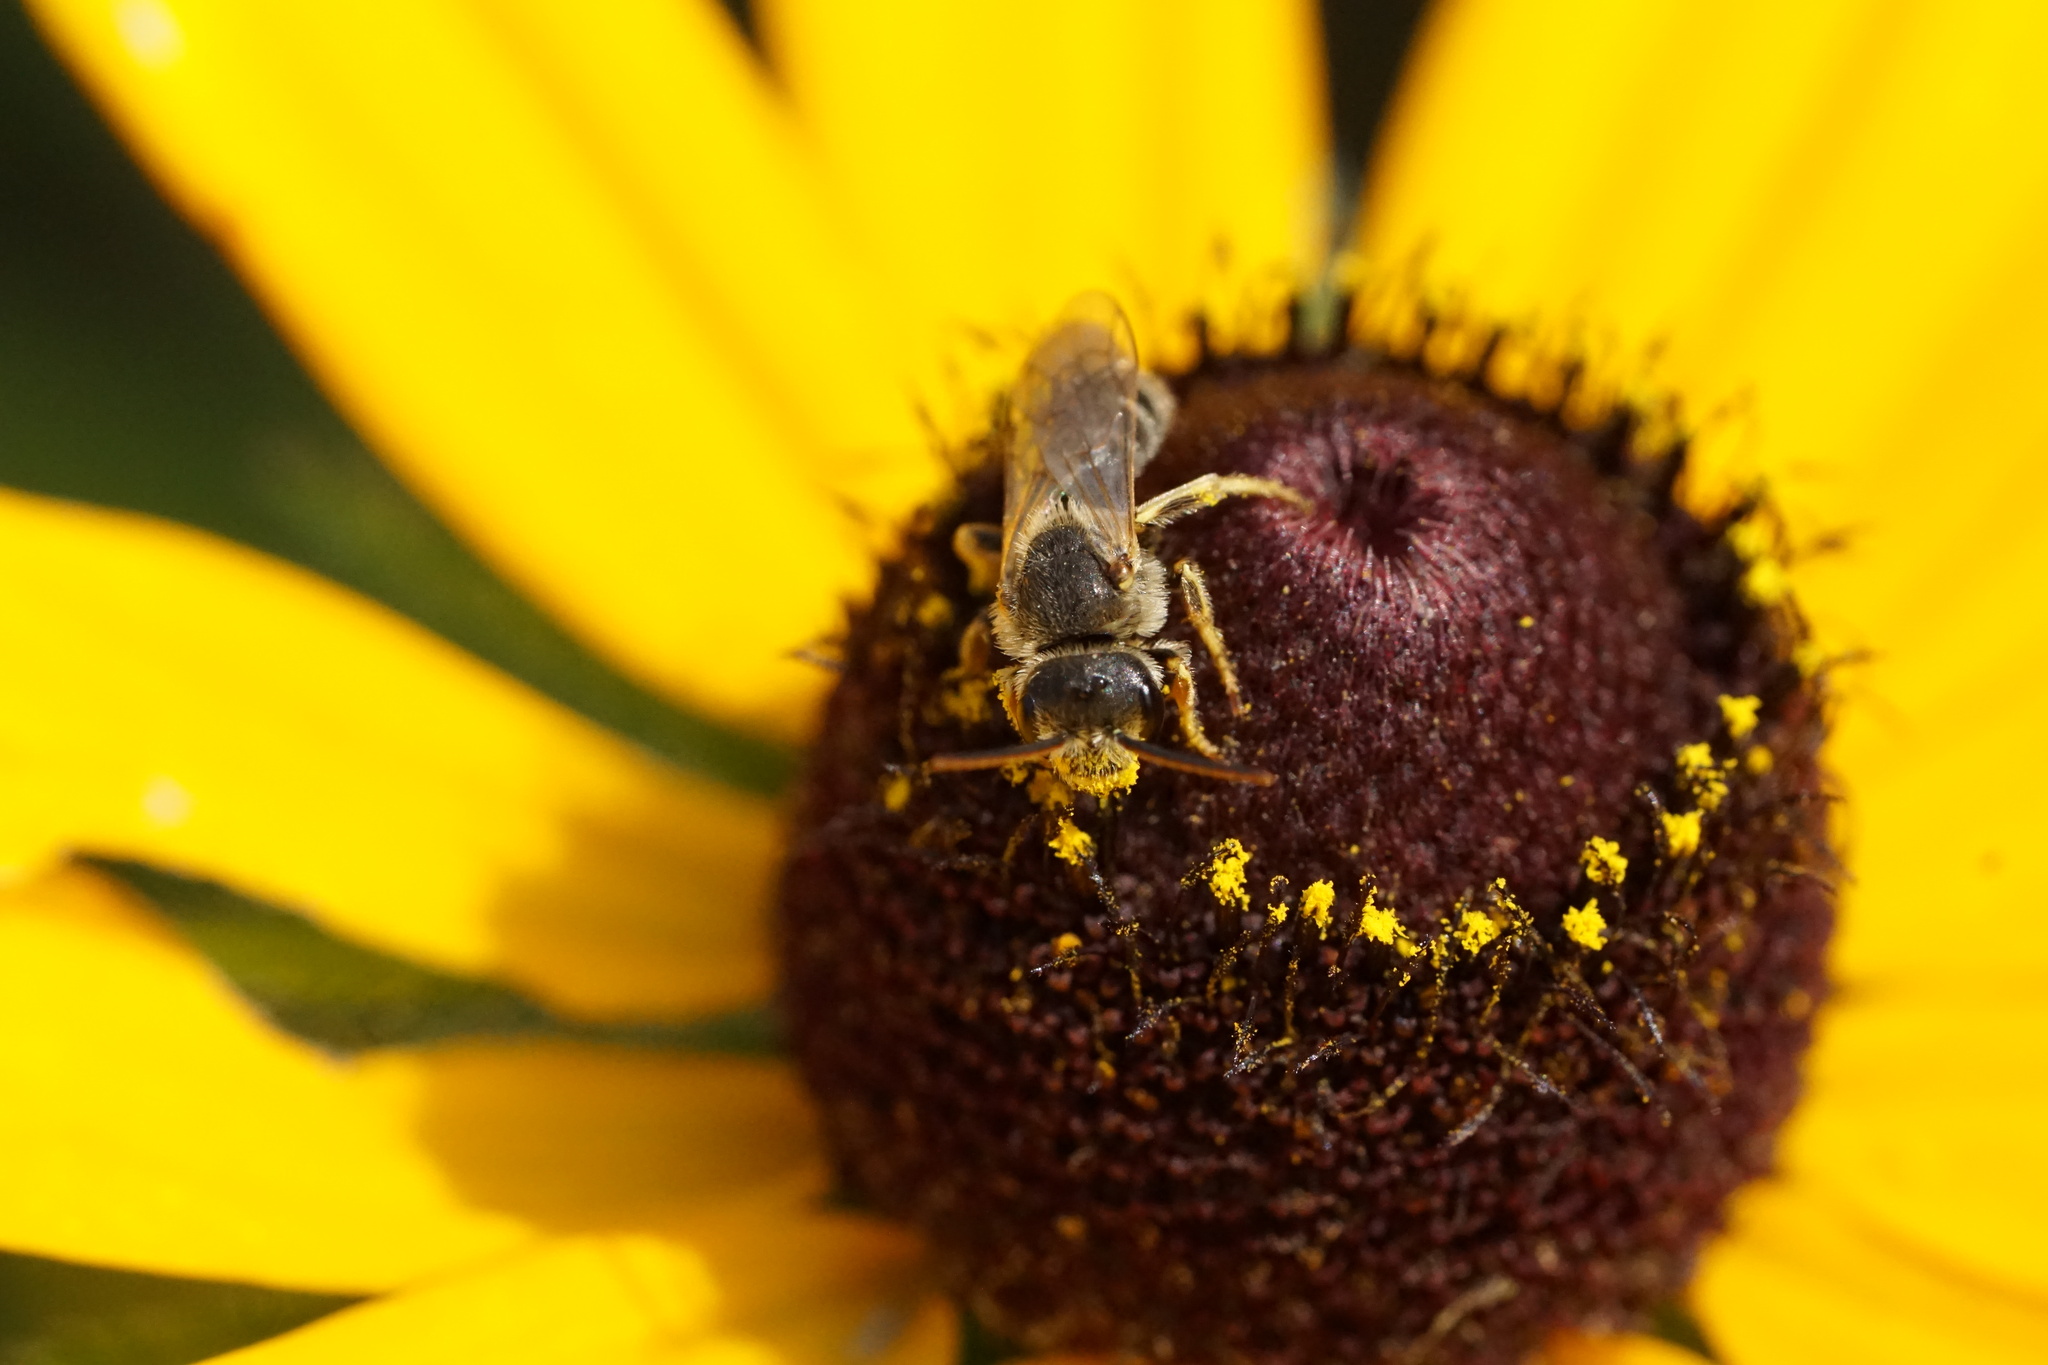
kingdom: Animalia
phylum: Arthropoda
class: Insecta
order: Hymenoptera
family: Halictidae
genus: Halictus
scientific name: Halictus ligatus
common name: Ligated furrow bee
